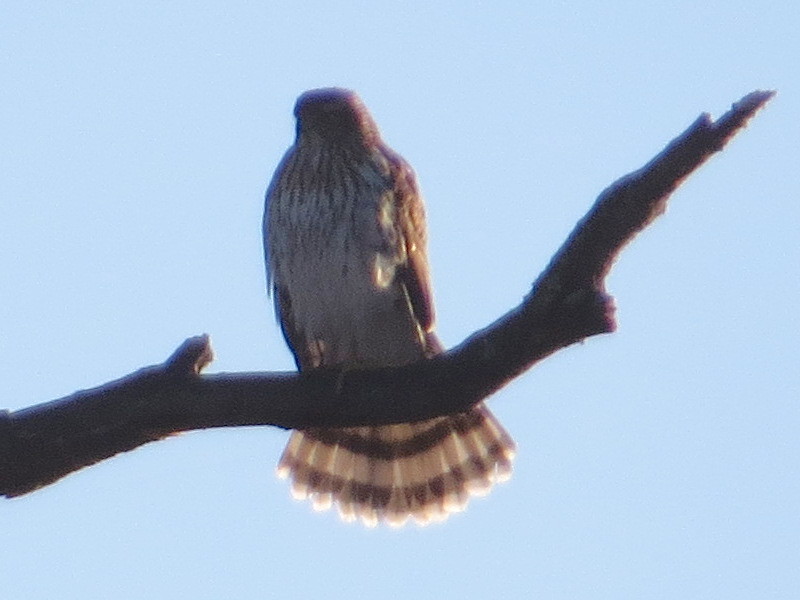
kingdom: Animalia
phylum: Chordata
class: Aves
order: Accipitriformes
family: Accipitridae
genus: Accipiter
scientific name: Accipiter cooperii
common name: Cooper's hawk
